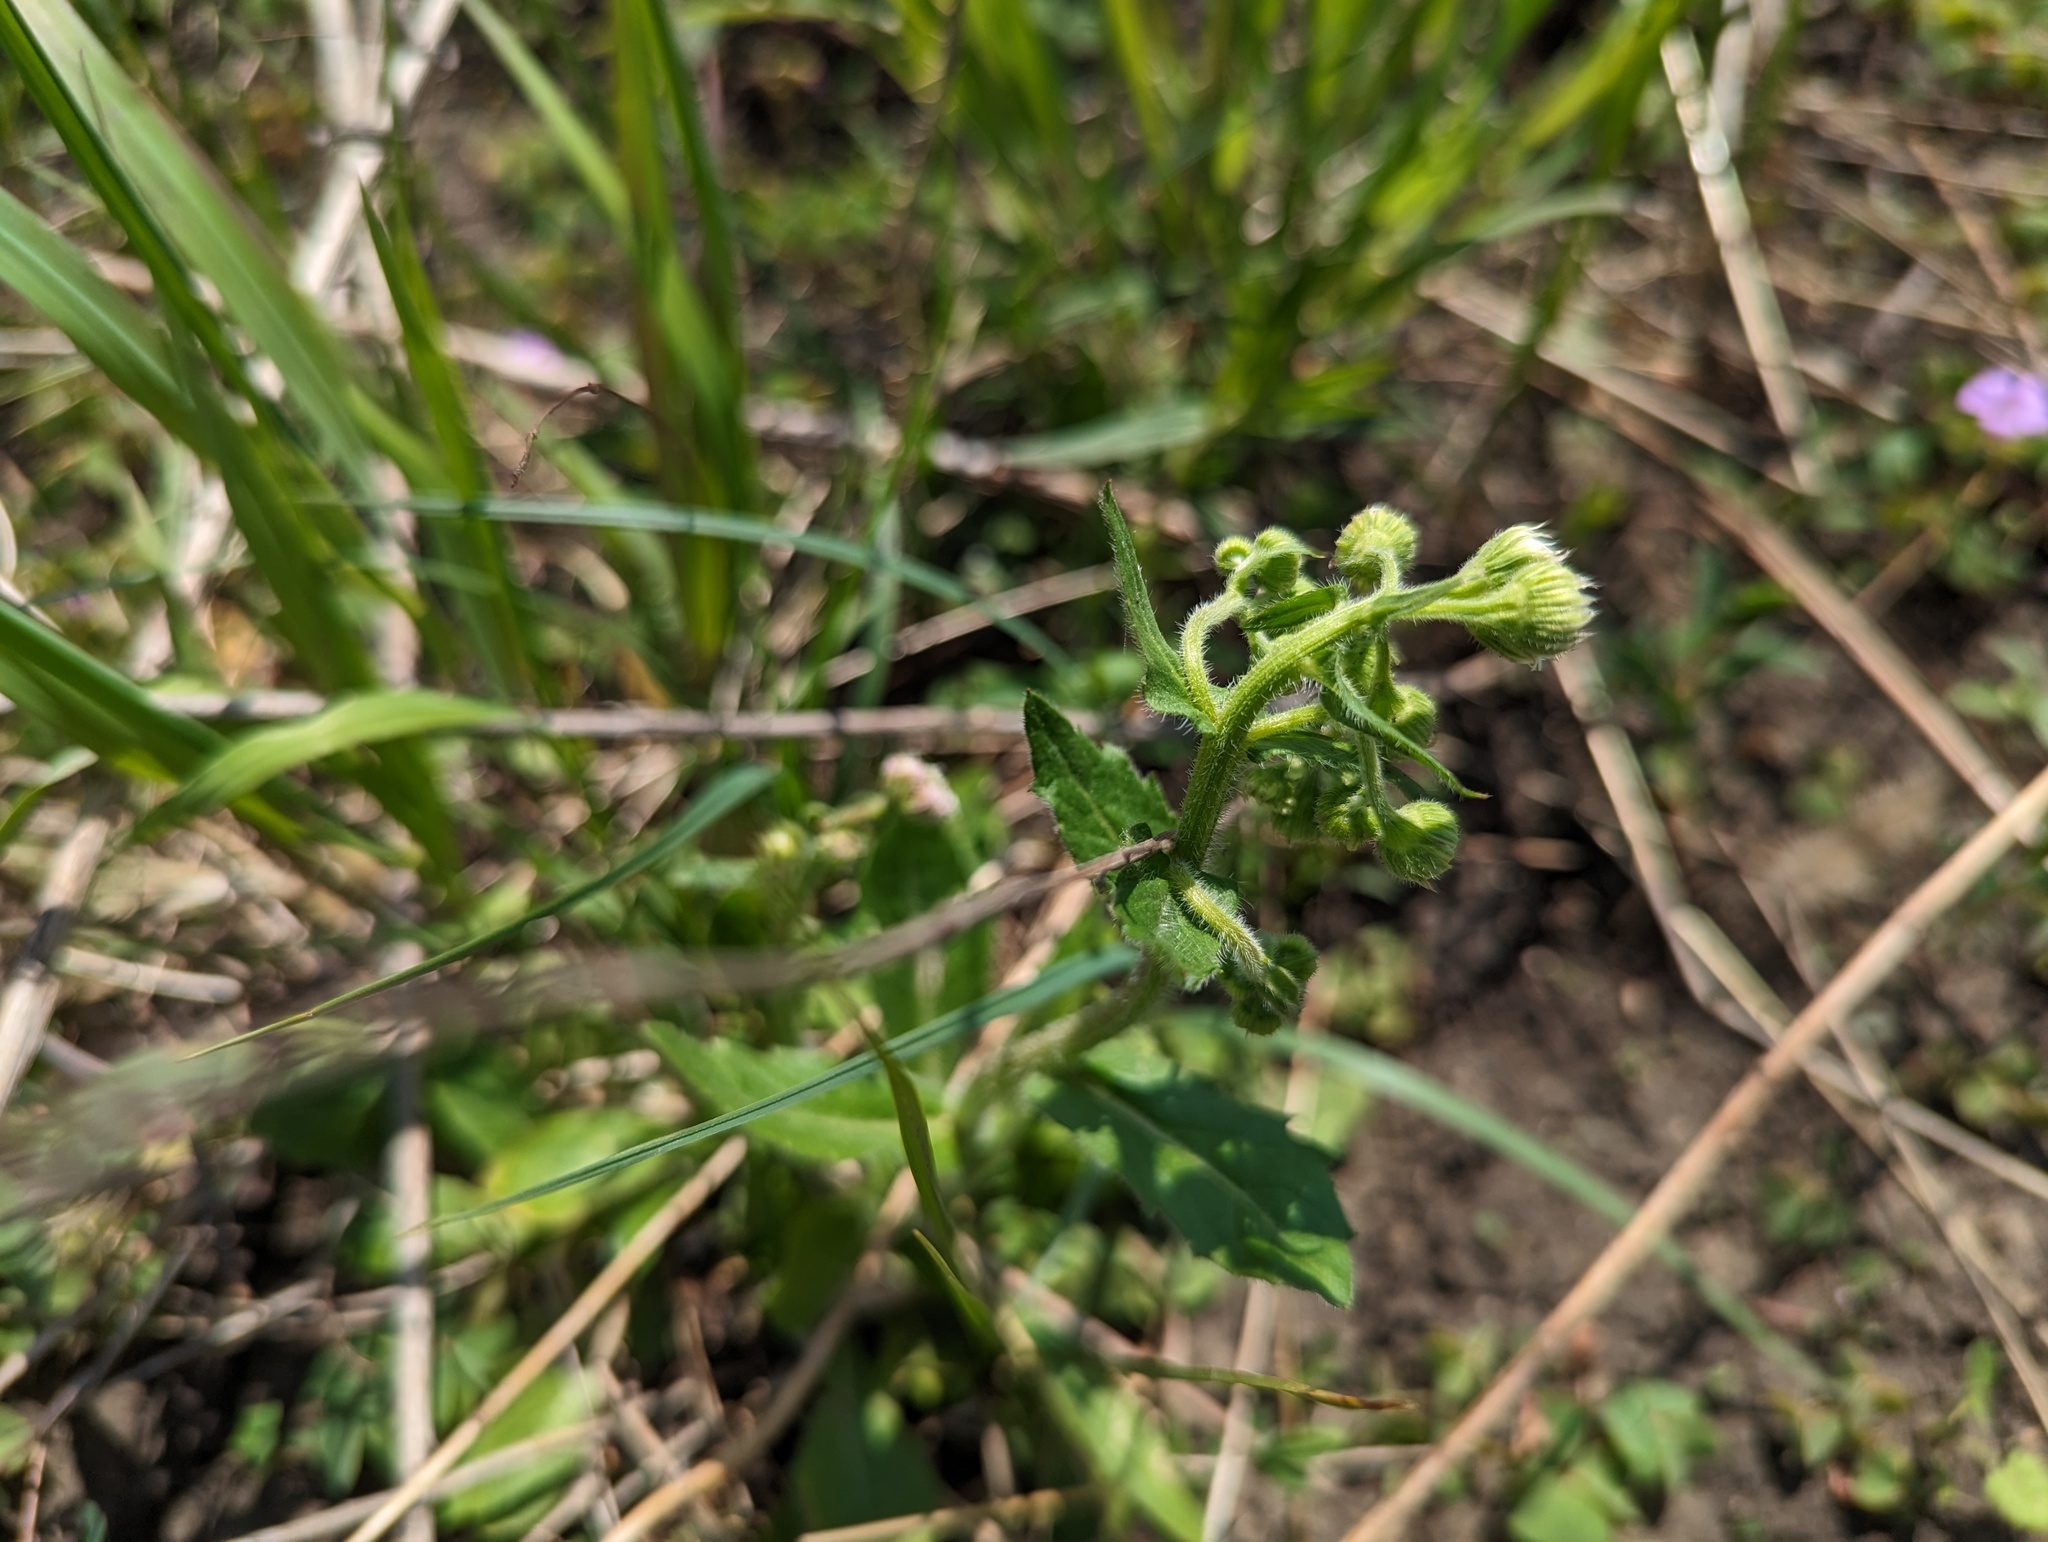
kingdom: Plantae
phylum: Tracheophyta
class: Magnoliopsida
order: Asterales
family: Asteraceae
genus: Erigeron
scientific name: Erigeron philadelphicus
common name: Robin's-plantain
